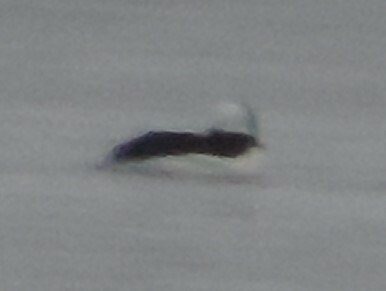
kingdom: Animalia
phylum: Chordata
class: Aves
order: Anseriformes
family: Anatidae
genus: Bucephala
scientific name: Bucephala albeola
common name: Bufflehead
